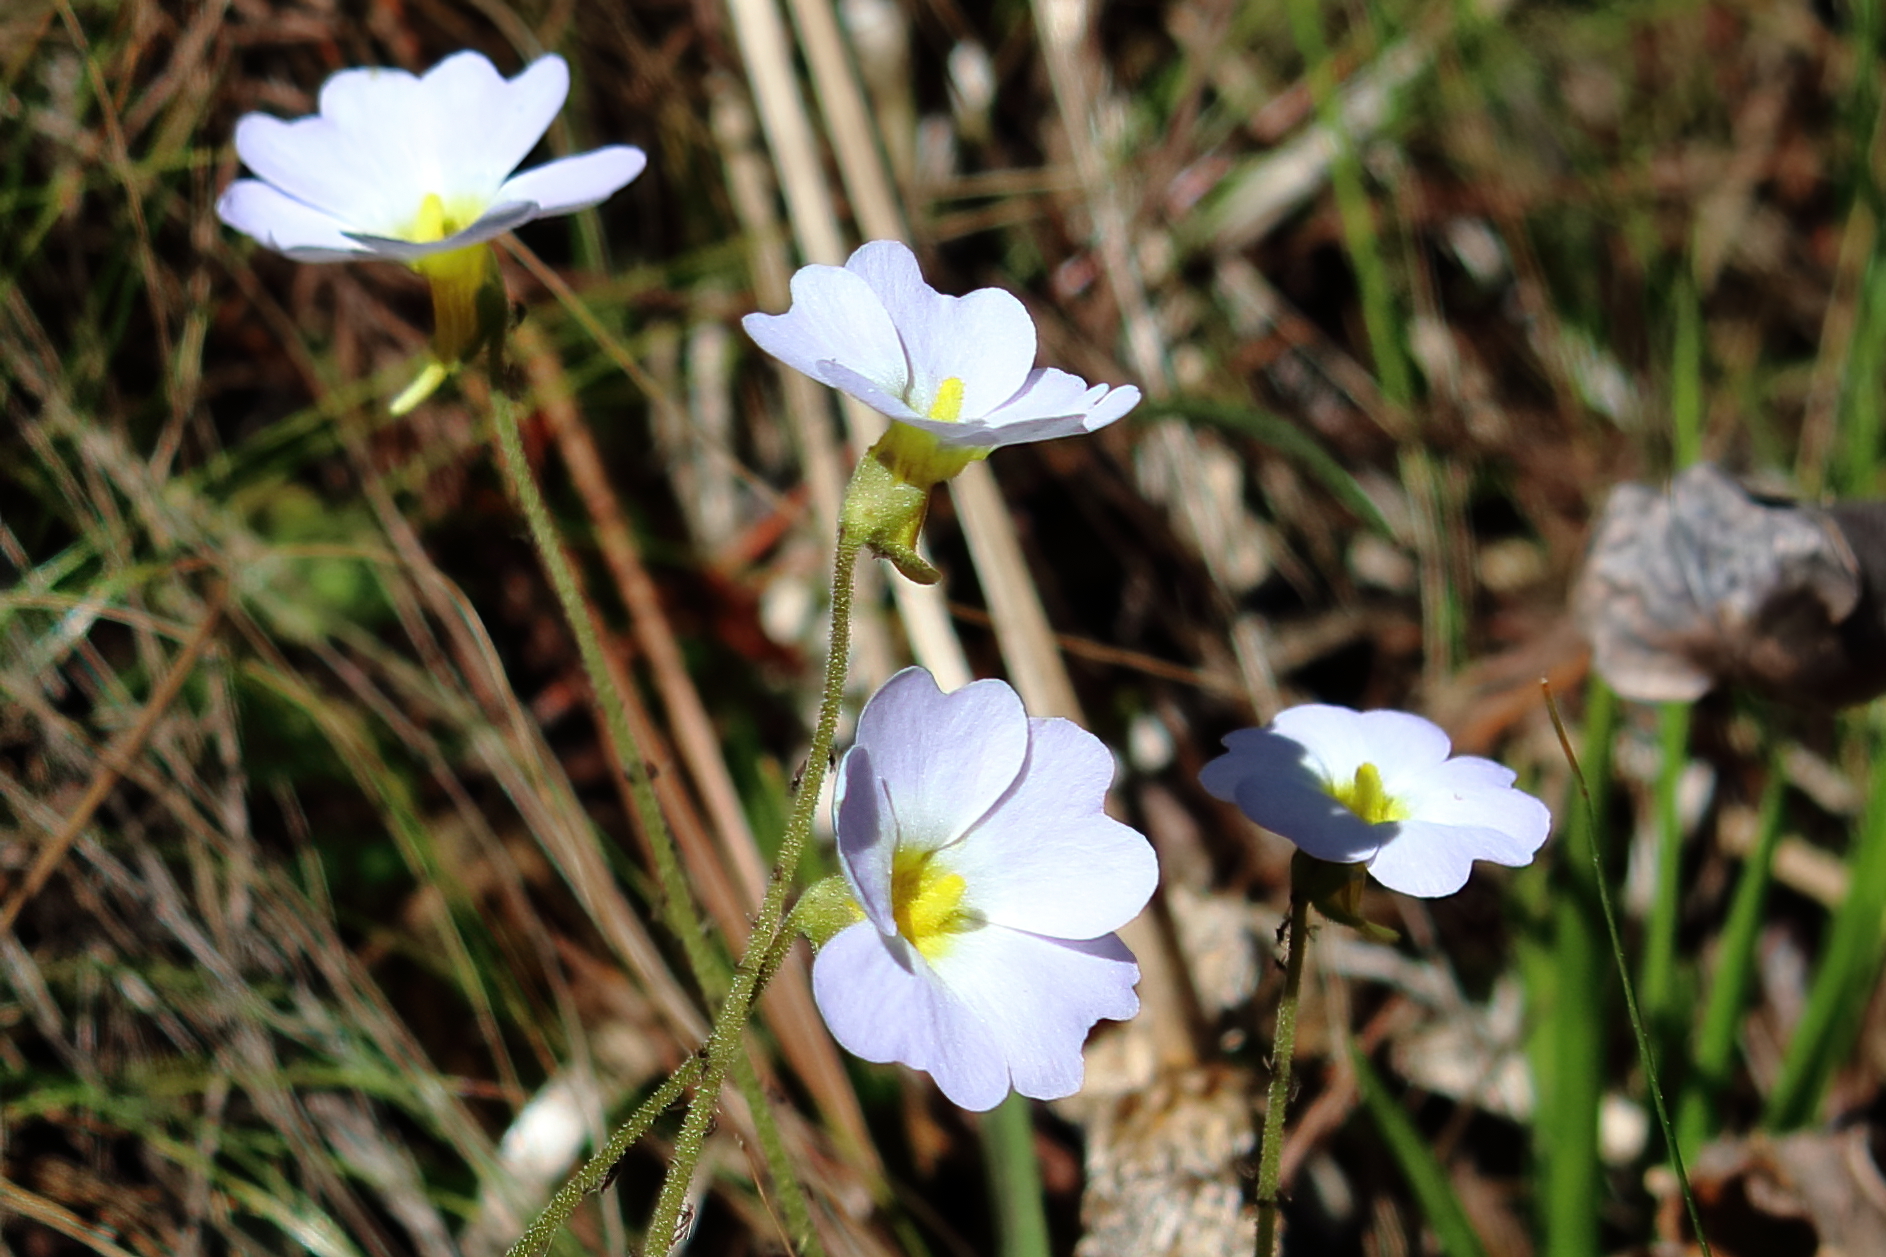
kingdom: Plantae
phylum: Tracheophyta
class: Magnoliopsida
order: Lamiales
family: Lentibulariaceae
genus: Pinguicula
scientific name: Pinguicula primuliflora
